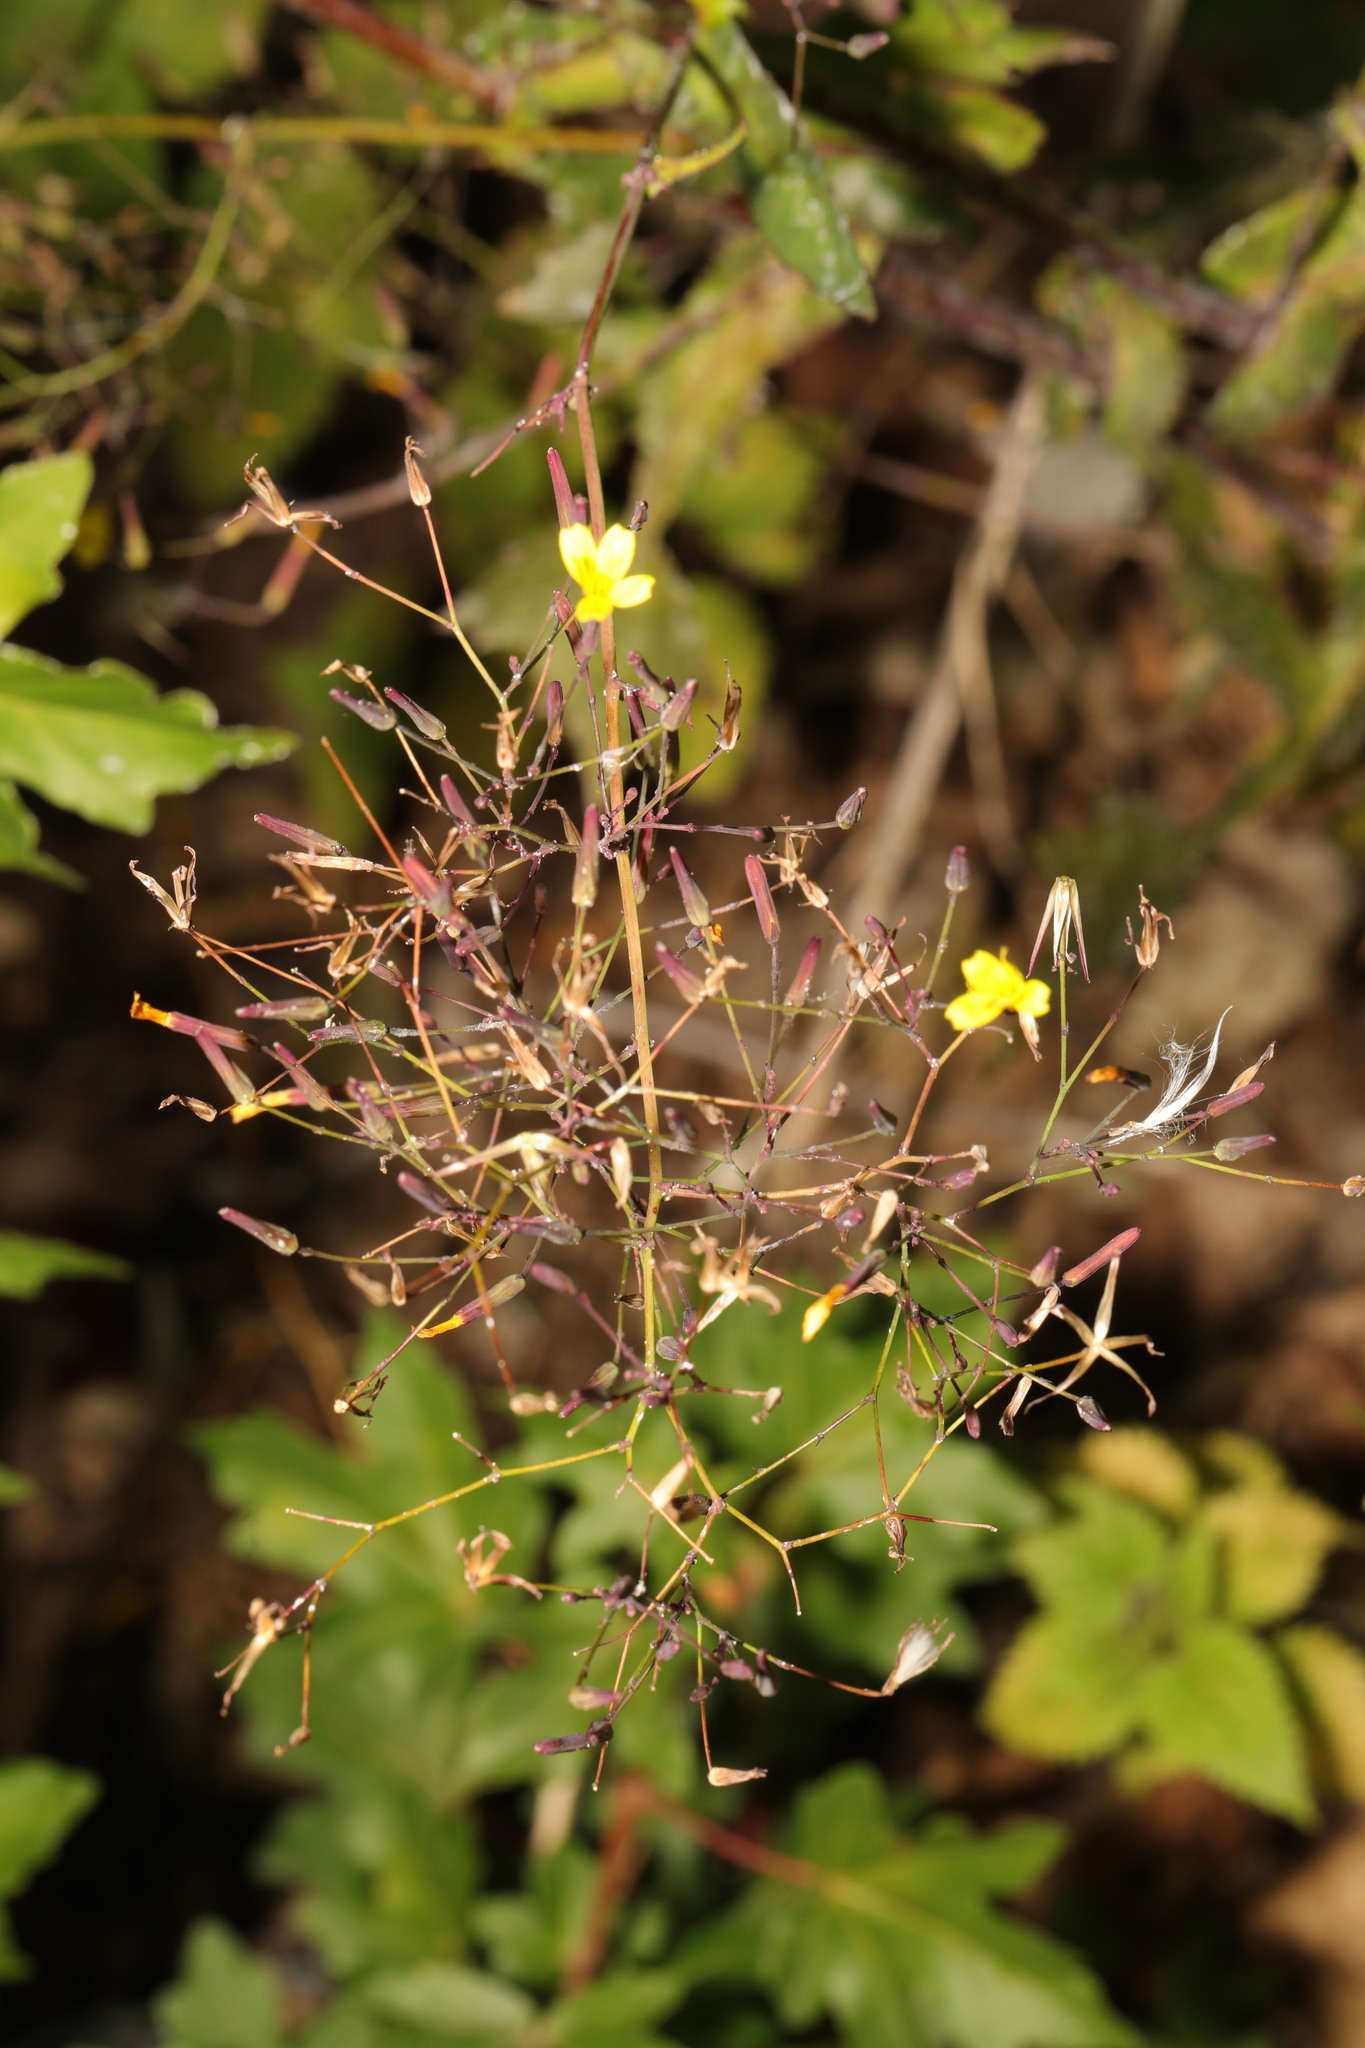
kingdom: Plantae
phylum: Tracheophyta
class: Magnoliopsida
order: Asterales
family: Asteraceae
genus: Mycelis
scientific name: Mycelis muralis
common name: Wall lettuce
